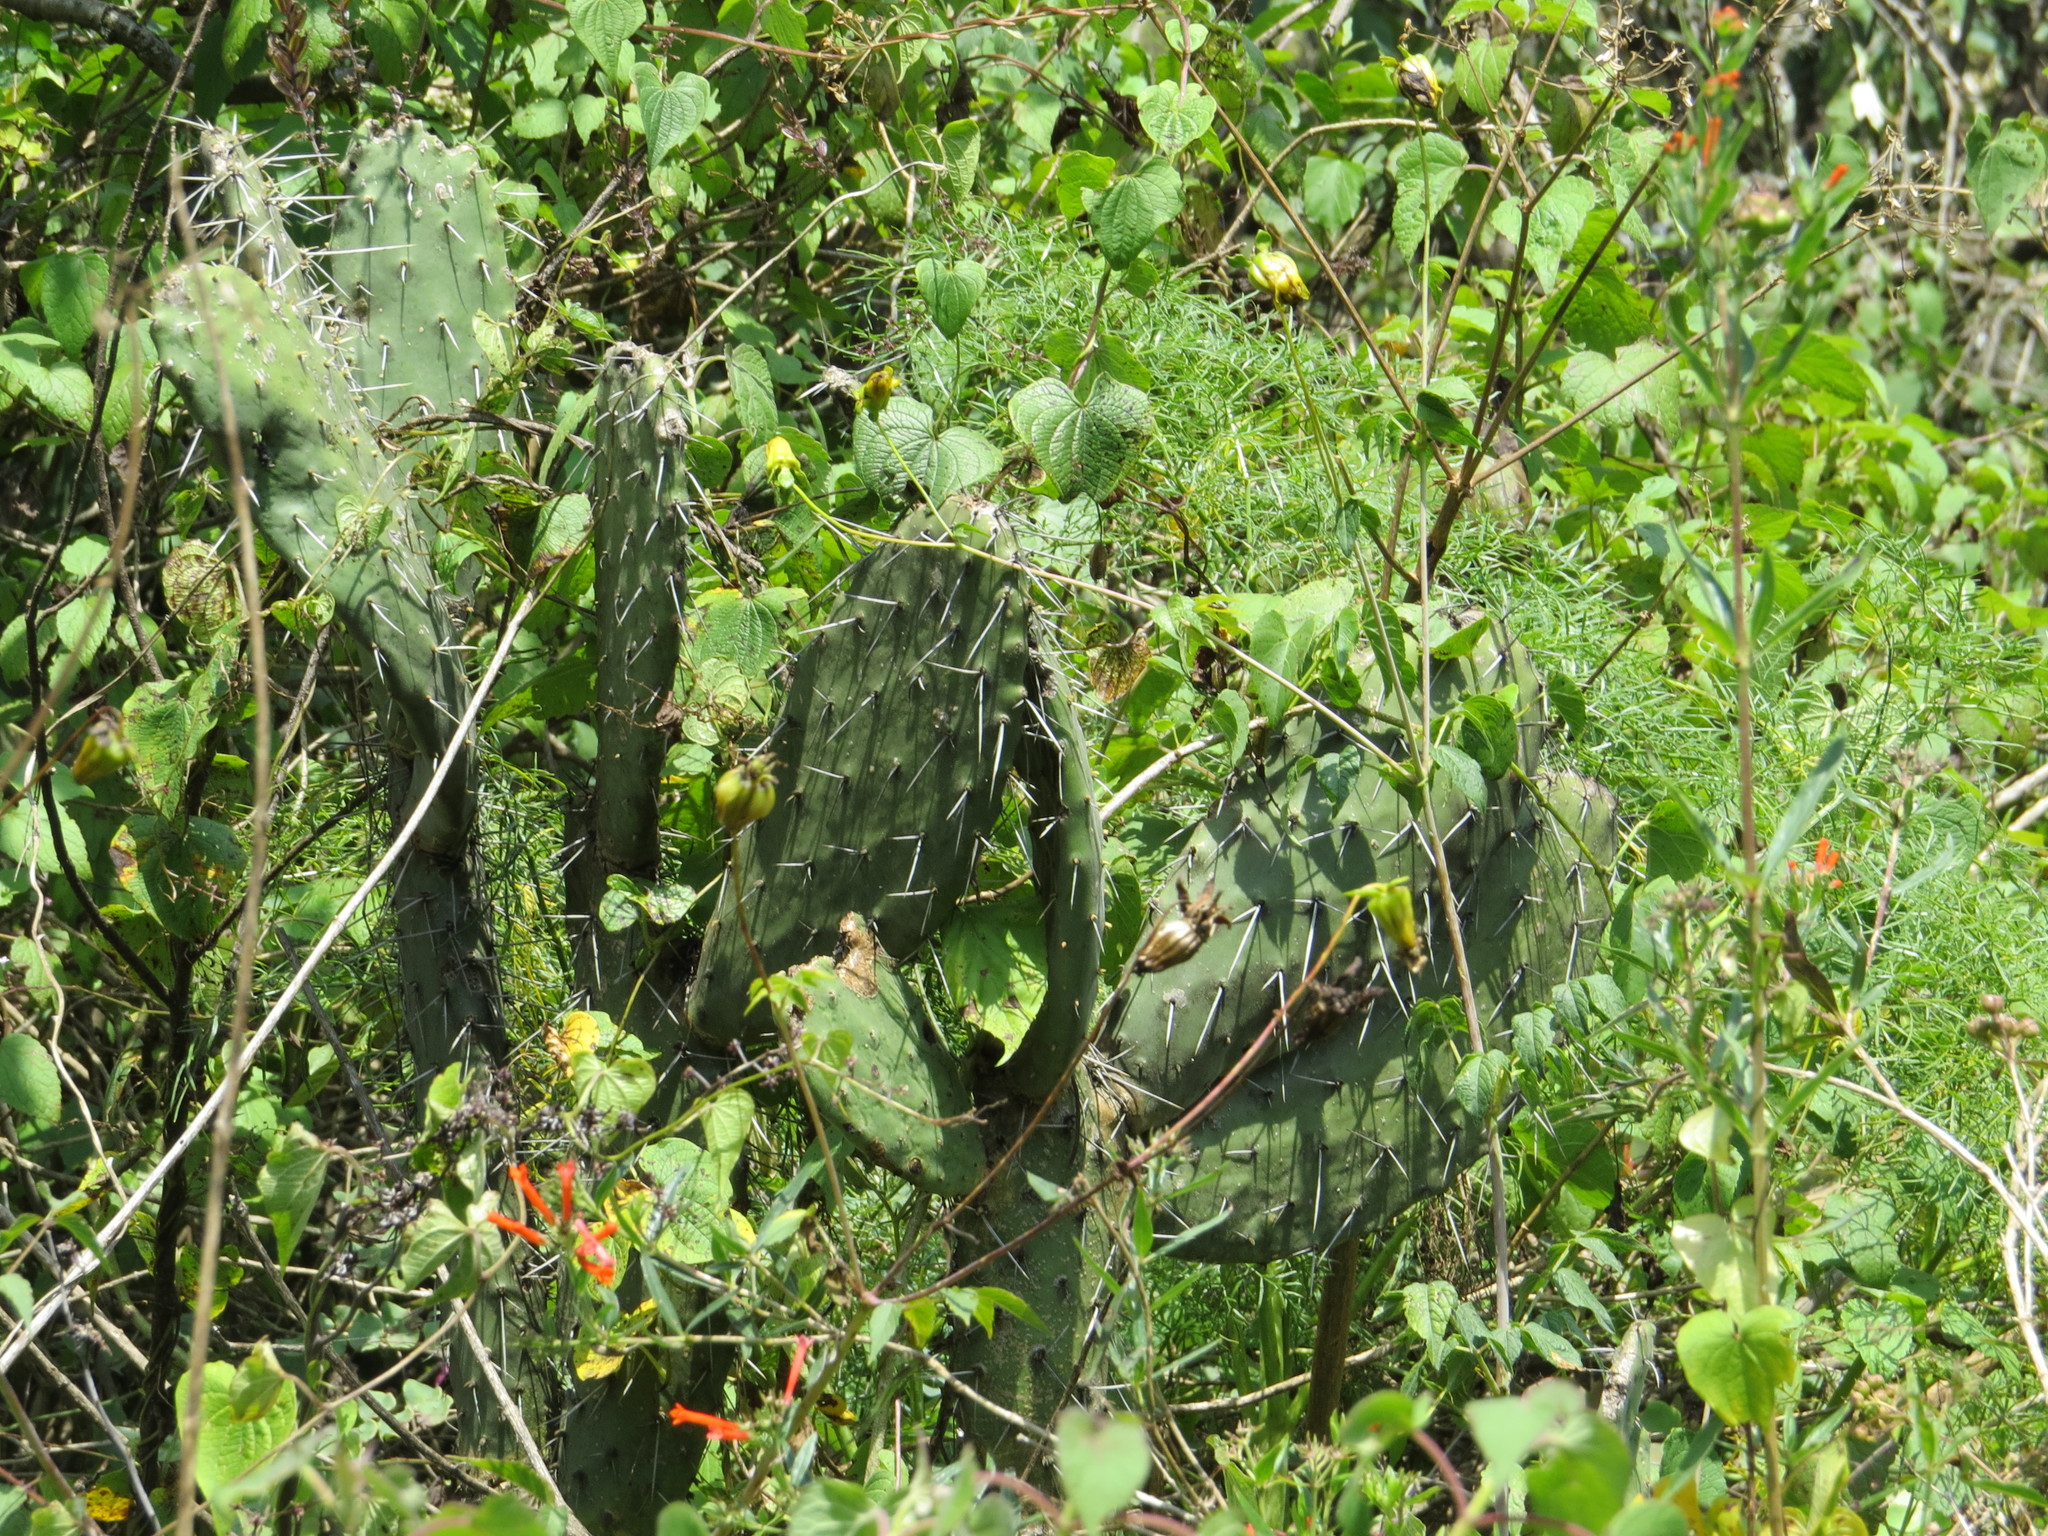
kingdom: Plantae
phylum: Tracheophyta
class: Magnoliopsida
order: Caryophyllales
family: Cactaceae
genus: Opuntia
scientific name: Opuntia lasiacantha
